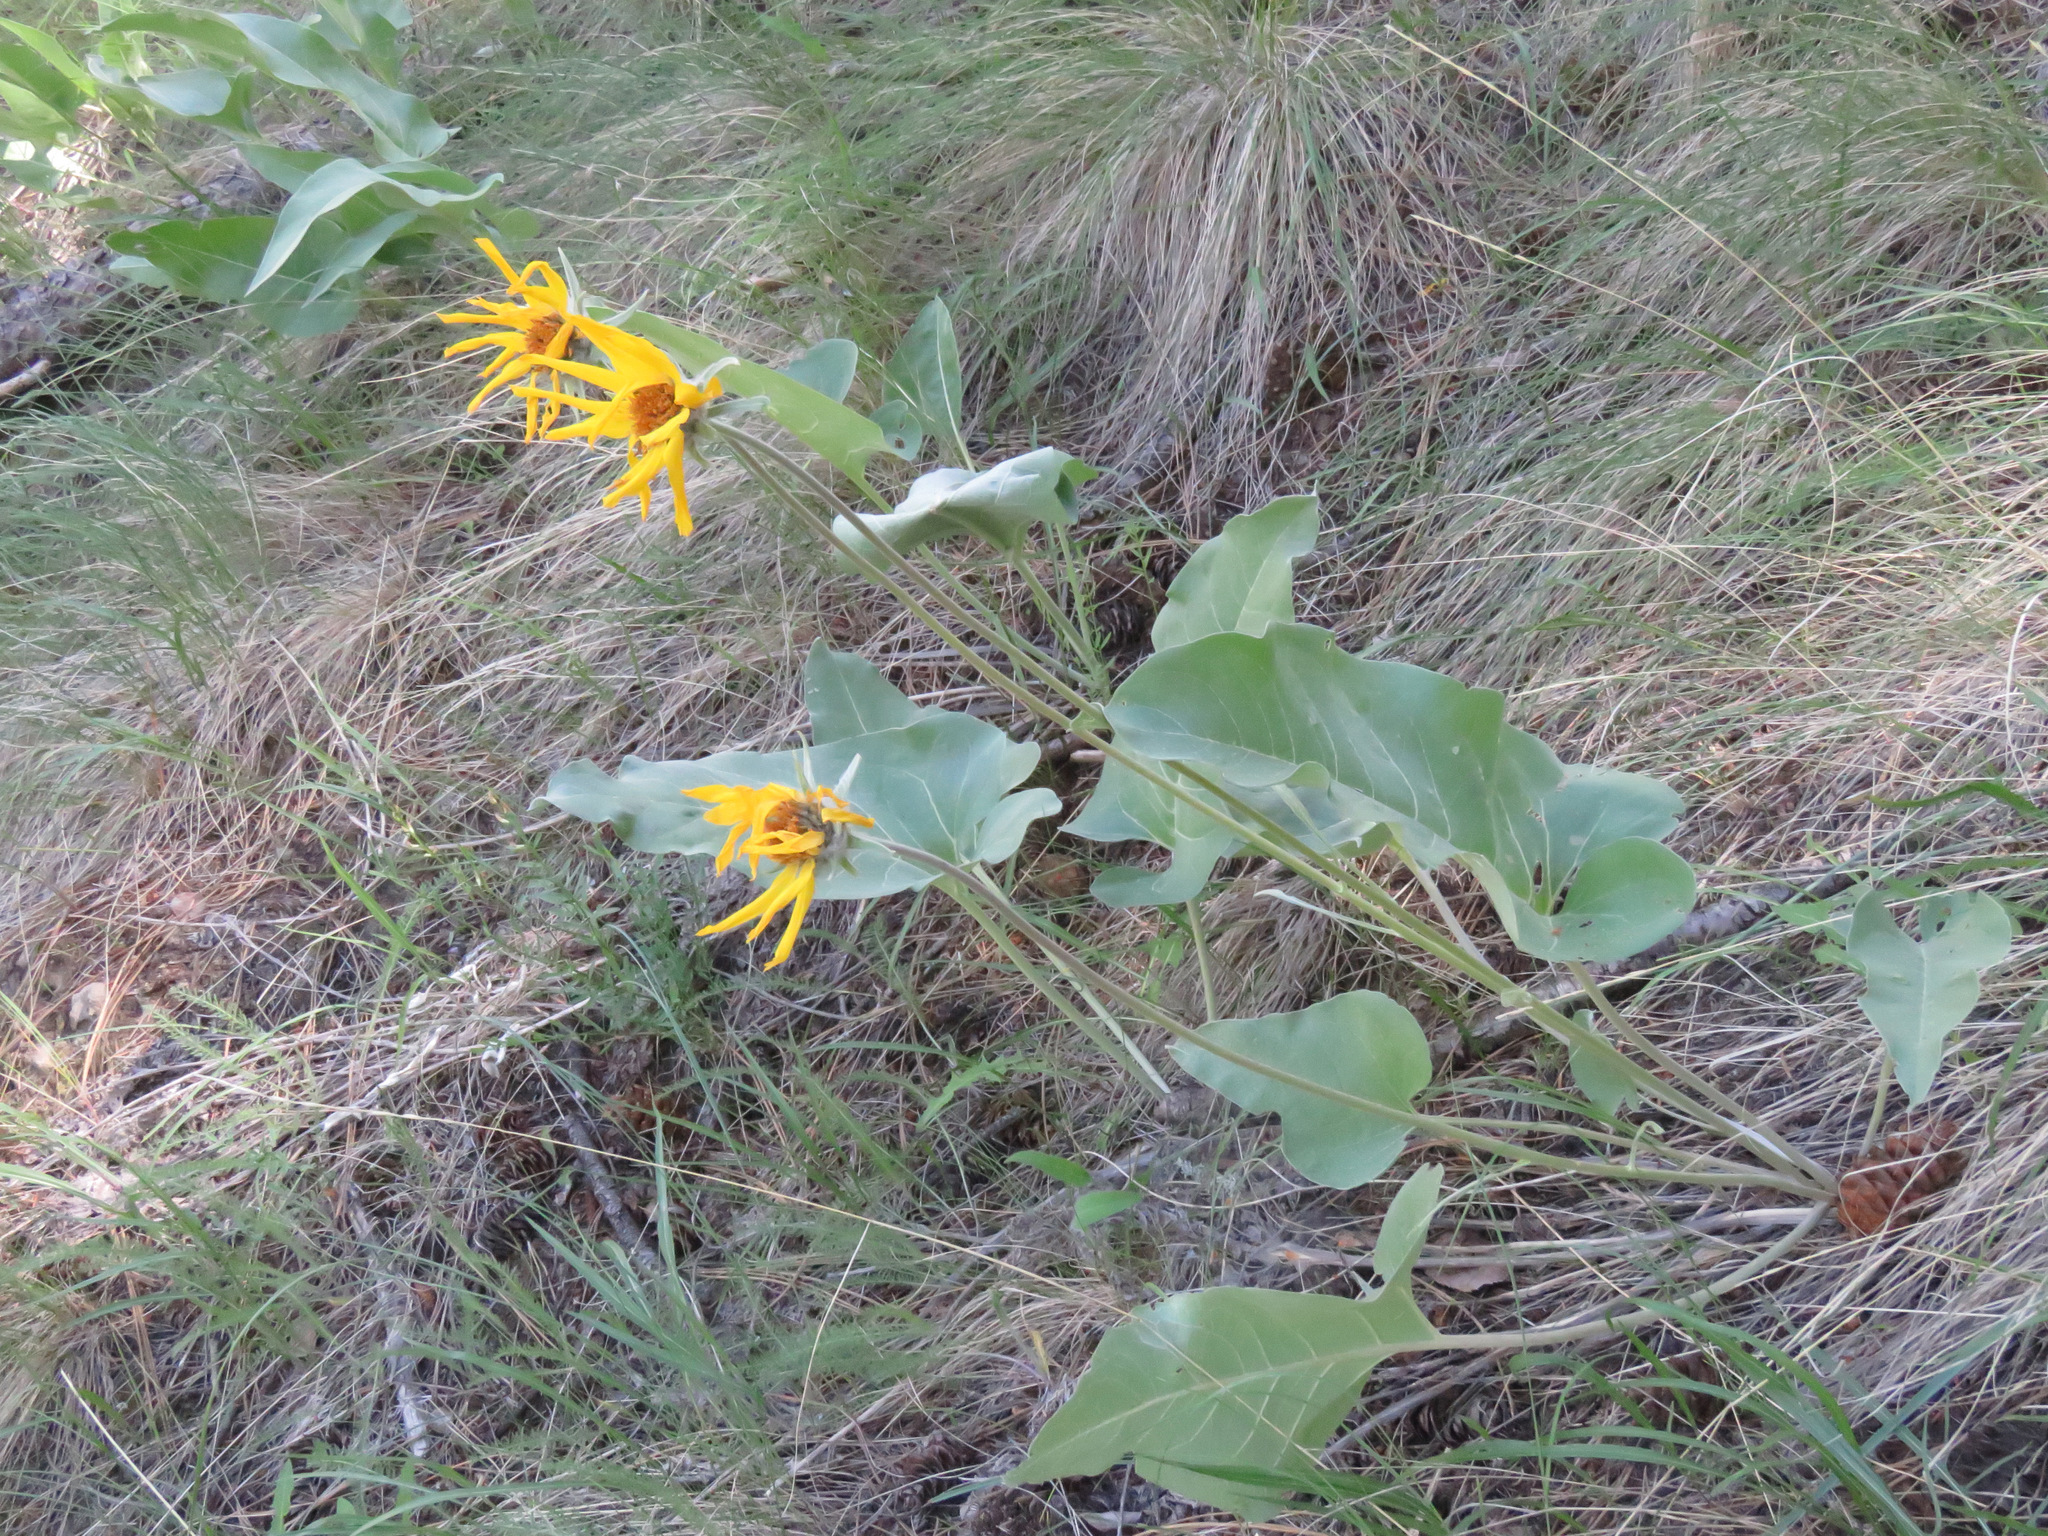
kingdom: Plantae
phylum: Tracheophyta
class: Magnoliopsida
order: Asterales
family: Asteraceae
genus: Wyethia
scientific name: Wyethia sagittata
